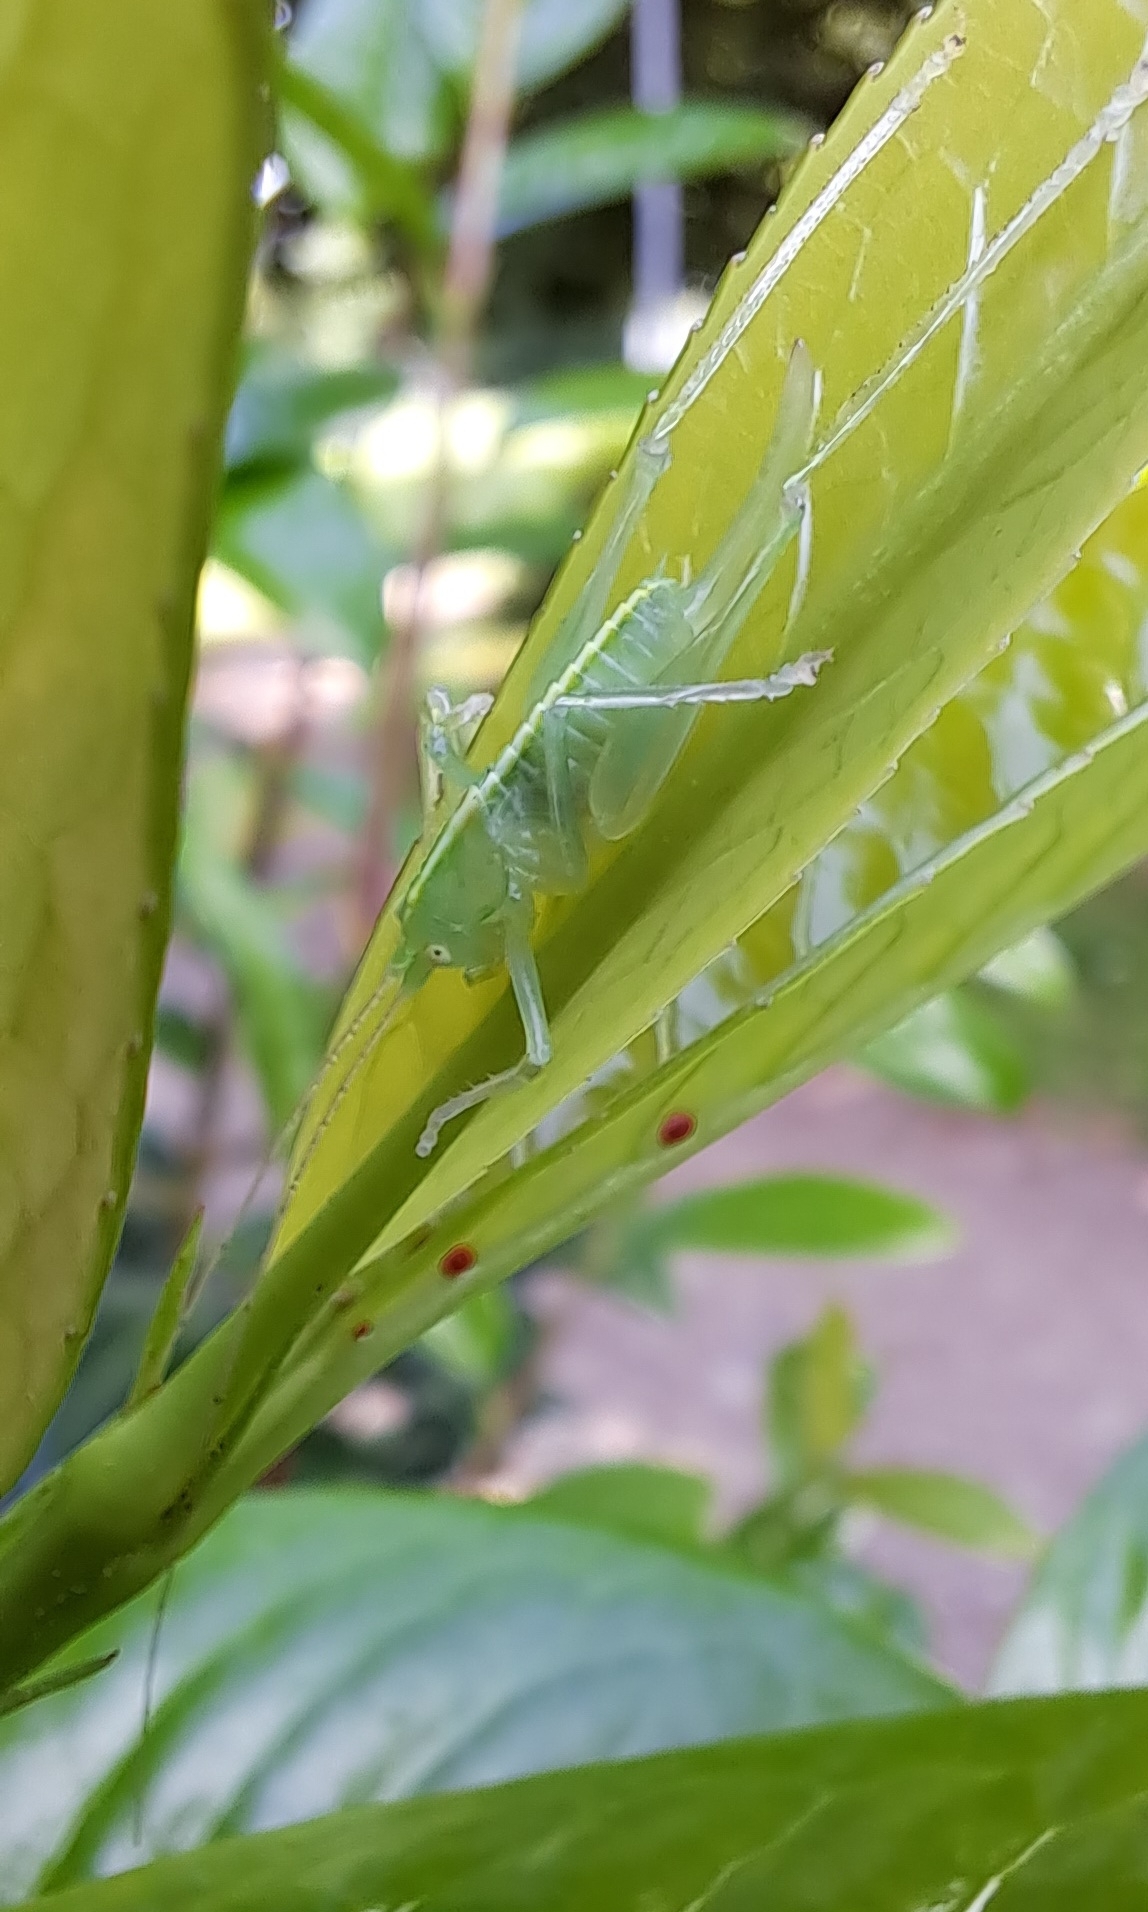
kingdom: Animalia
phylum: Arthropoda
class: Insecta
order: Orthoptera
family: Tettigoniidae
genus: Meconema
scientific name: Meconema meridionale
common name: Southern oak bush-cricket
